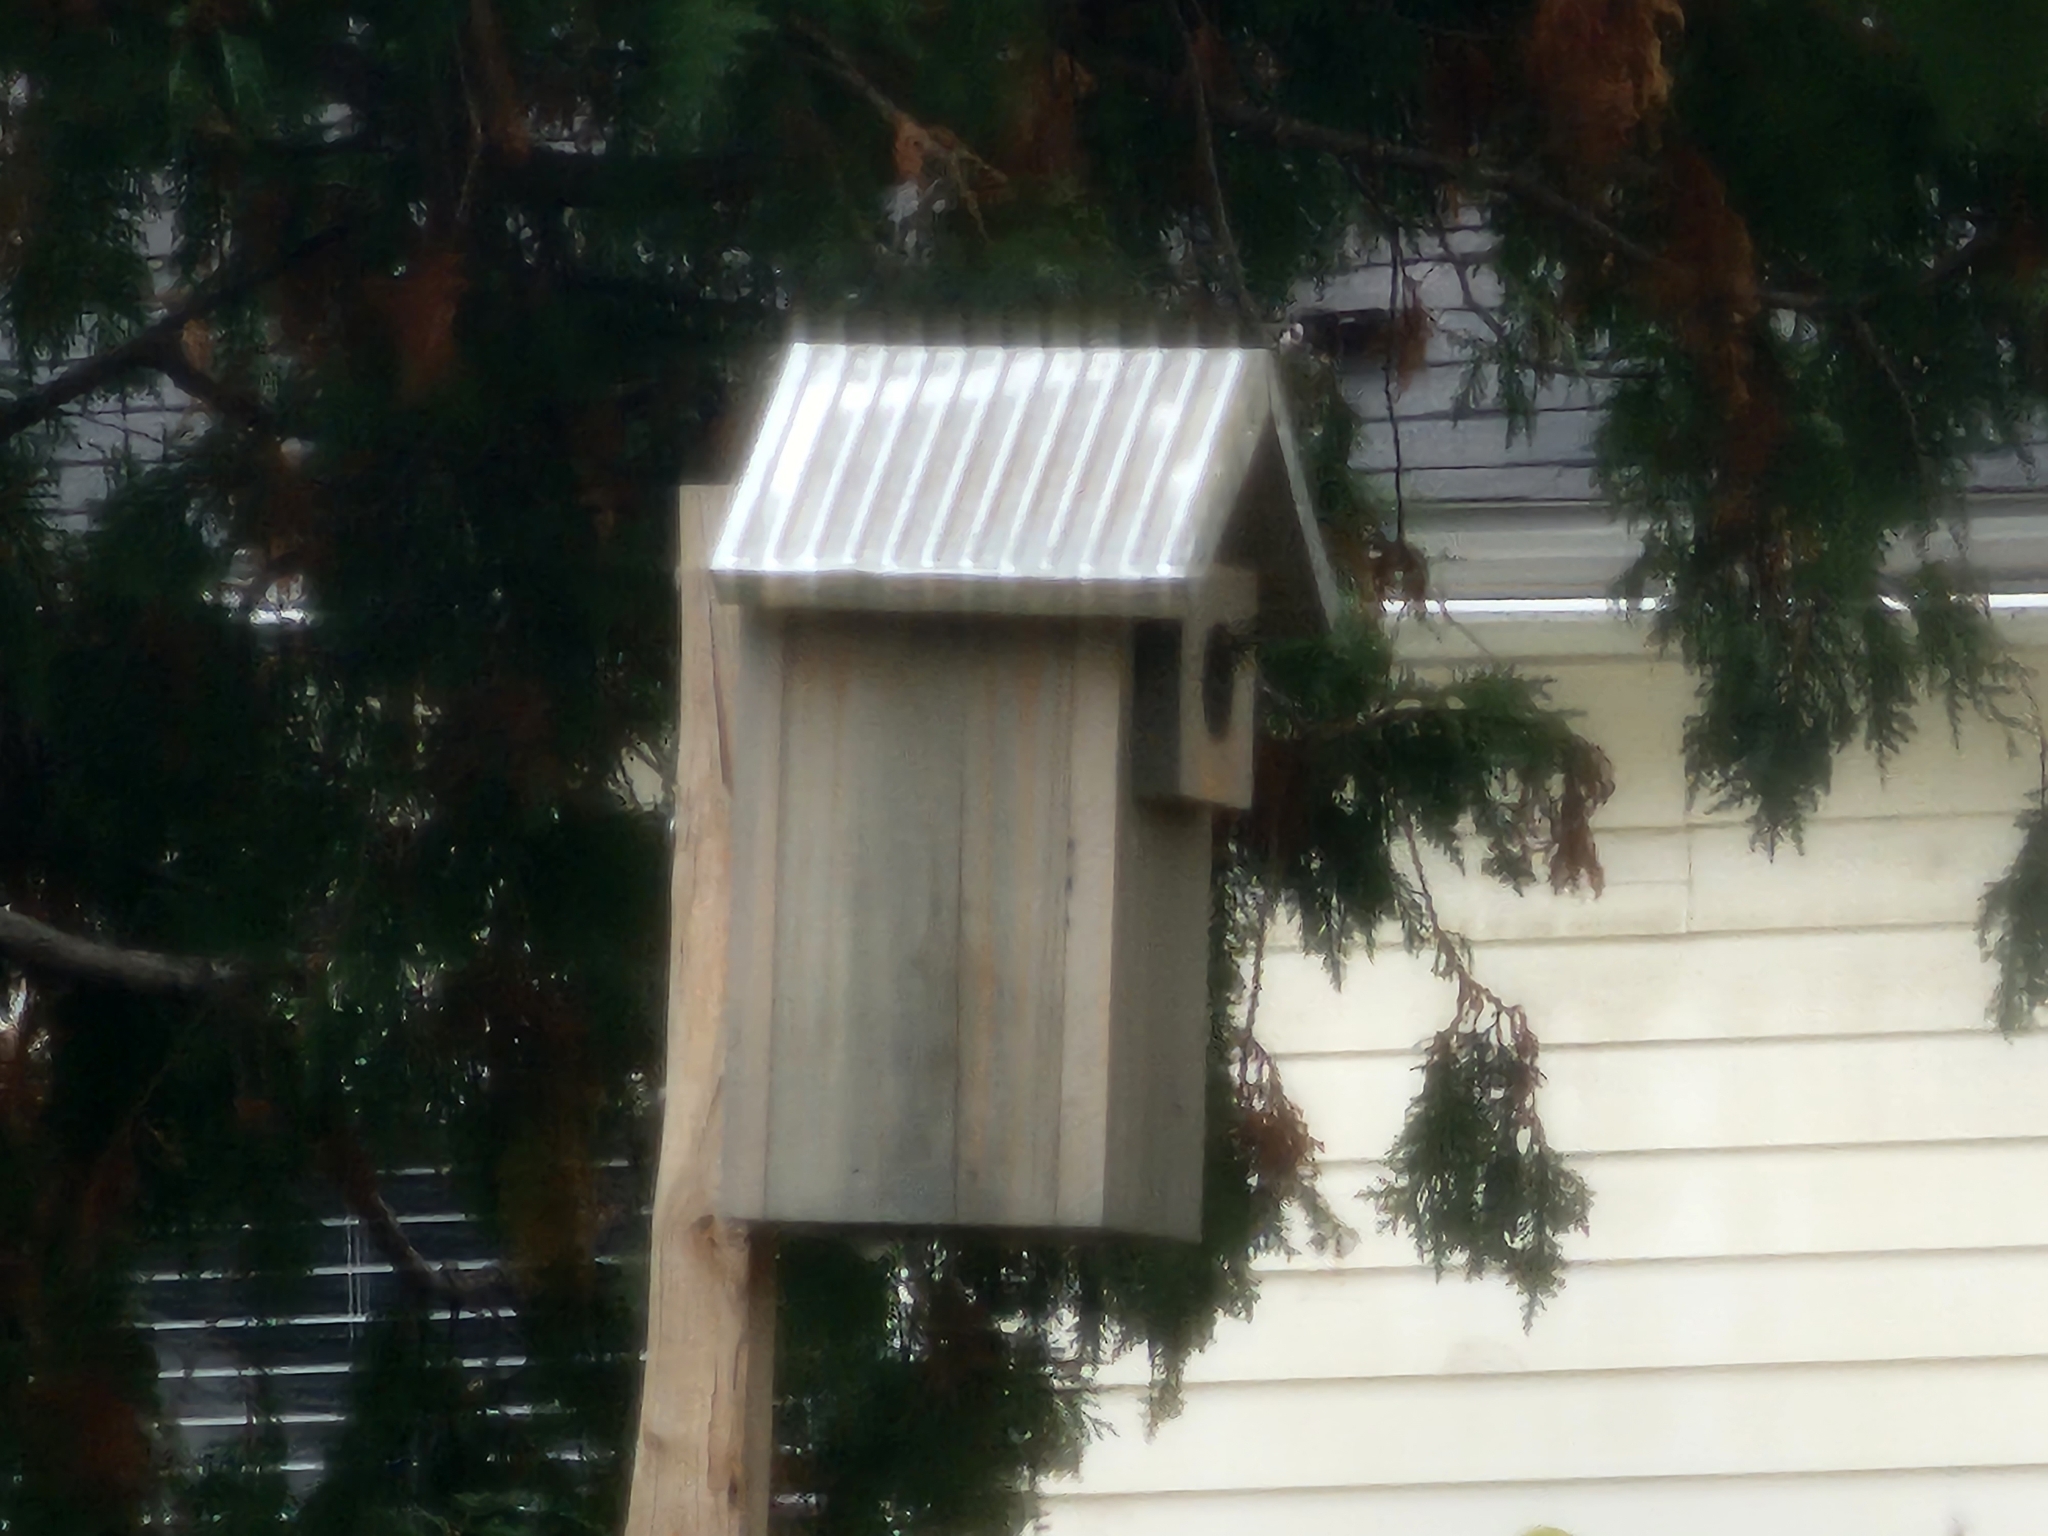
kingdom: Animalia
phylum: Chordata
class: Aves
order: Piciformes
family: Picidae
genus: Dryobates
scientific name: Dryobates pubescens
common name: Downy woodpecker
